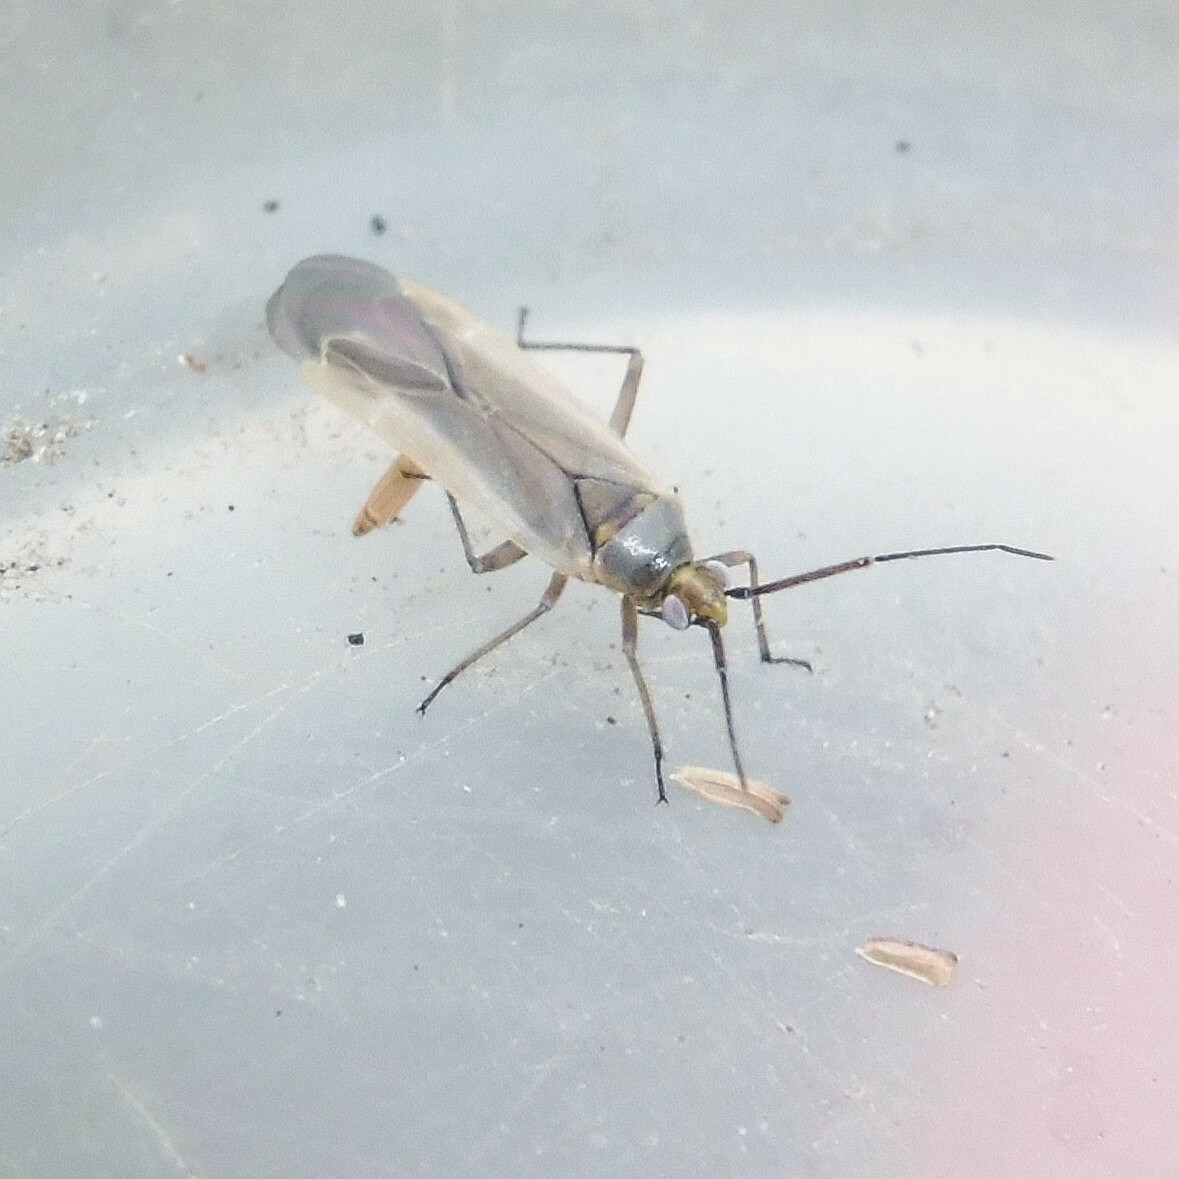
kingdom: Animalia
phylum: Arthropoda
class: Insecta
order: Hemiptera
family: Miridae
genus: Lopus
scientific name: Lopus decolor
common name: Plant bug
